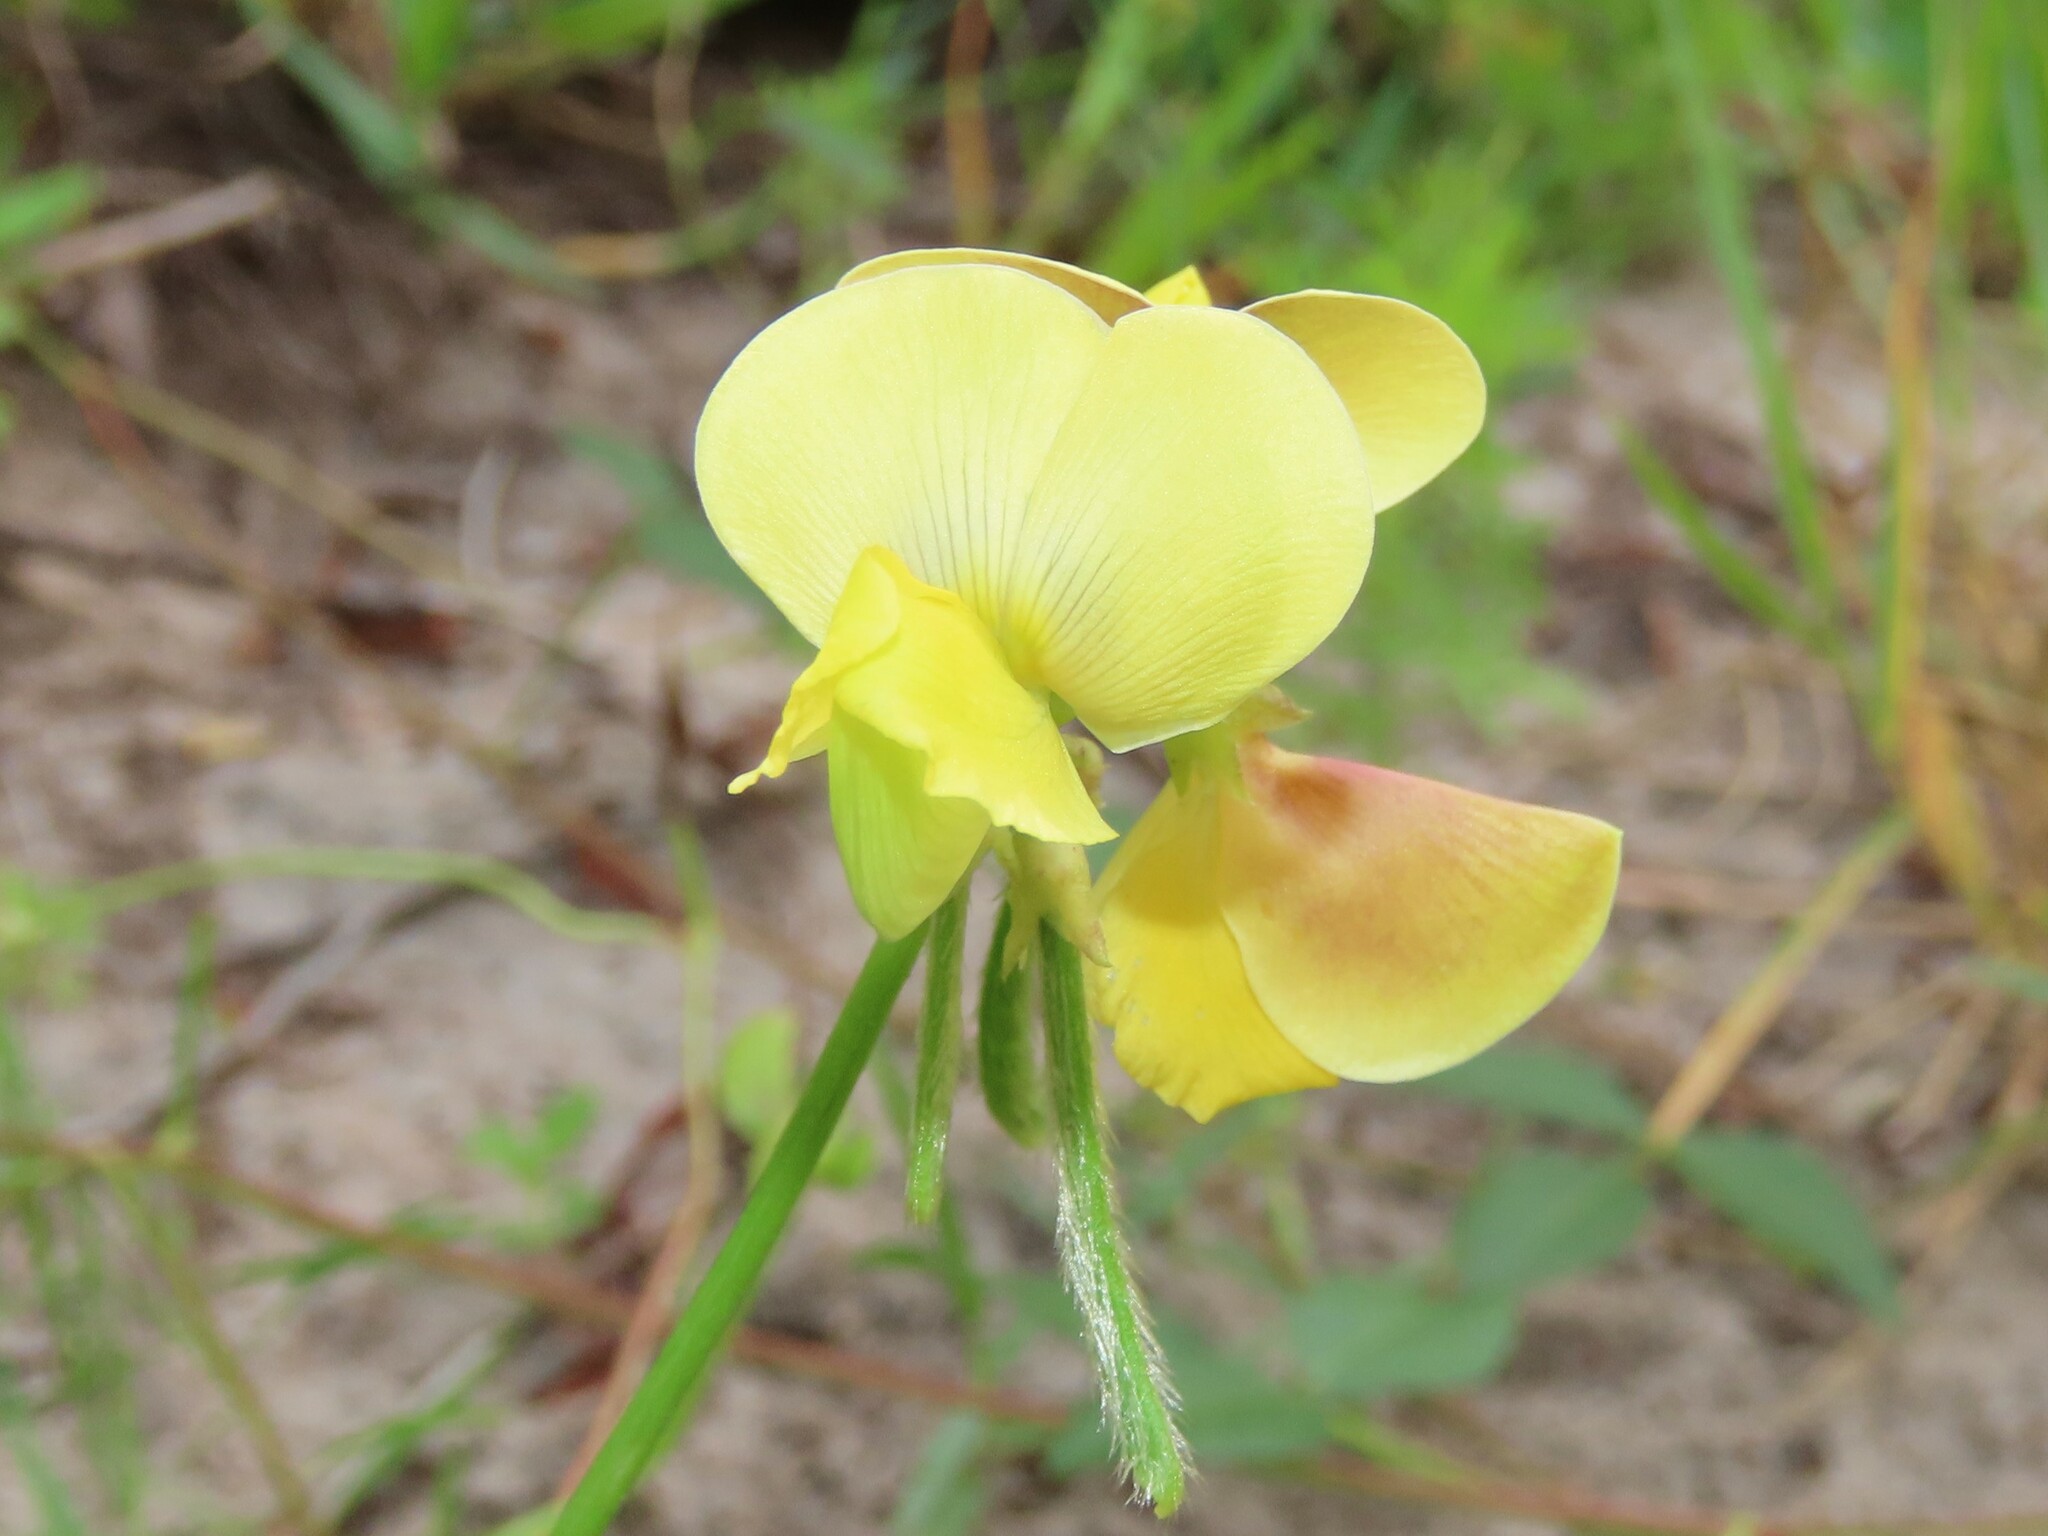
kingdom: Plantae
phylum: Tracheophyta
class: Magnoliopsida
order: Fabales
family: Fabaceae
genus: Vigna
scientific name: Vigna luteola
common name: Hairypod cowpea
